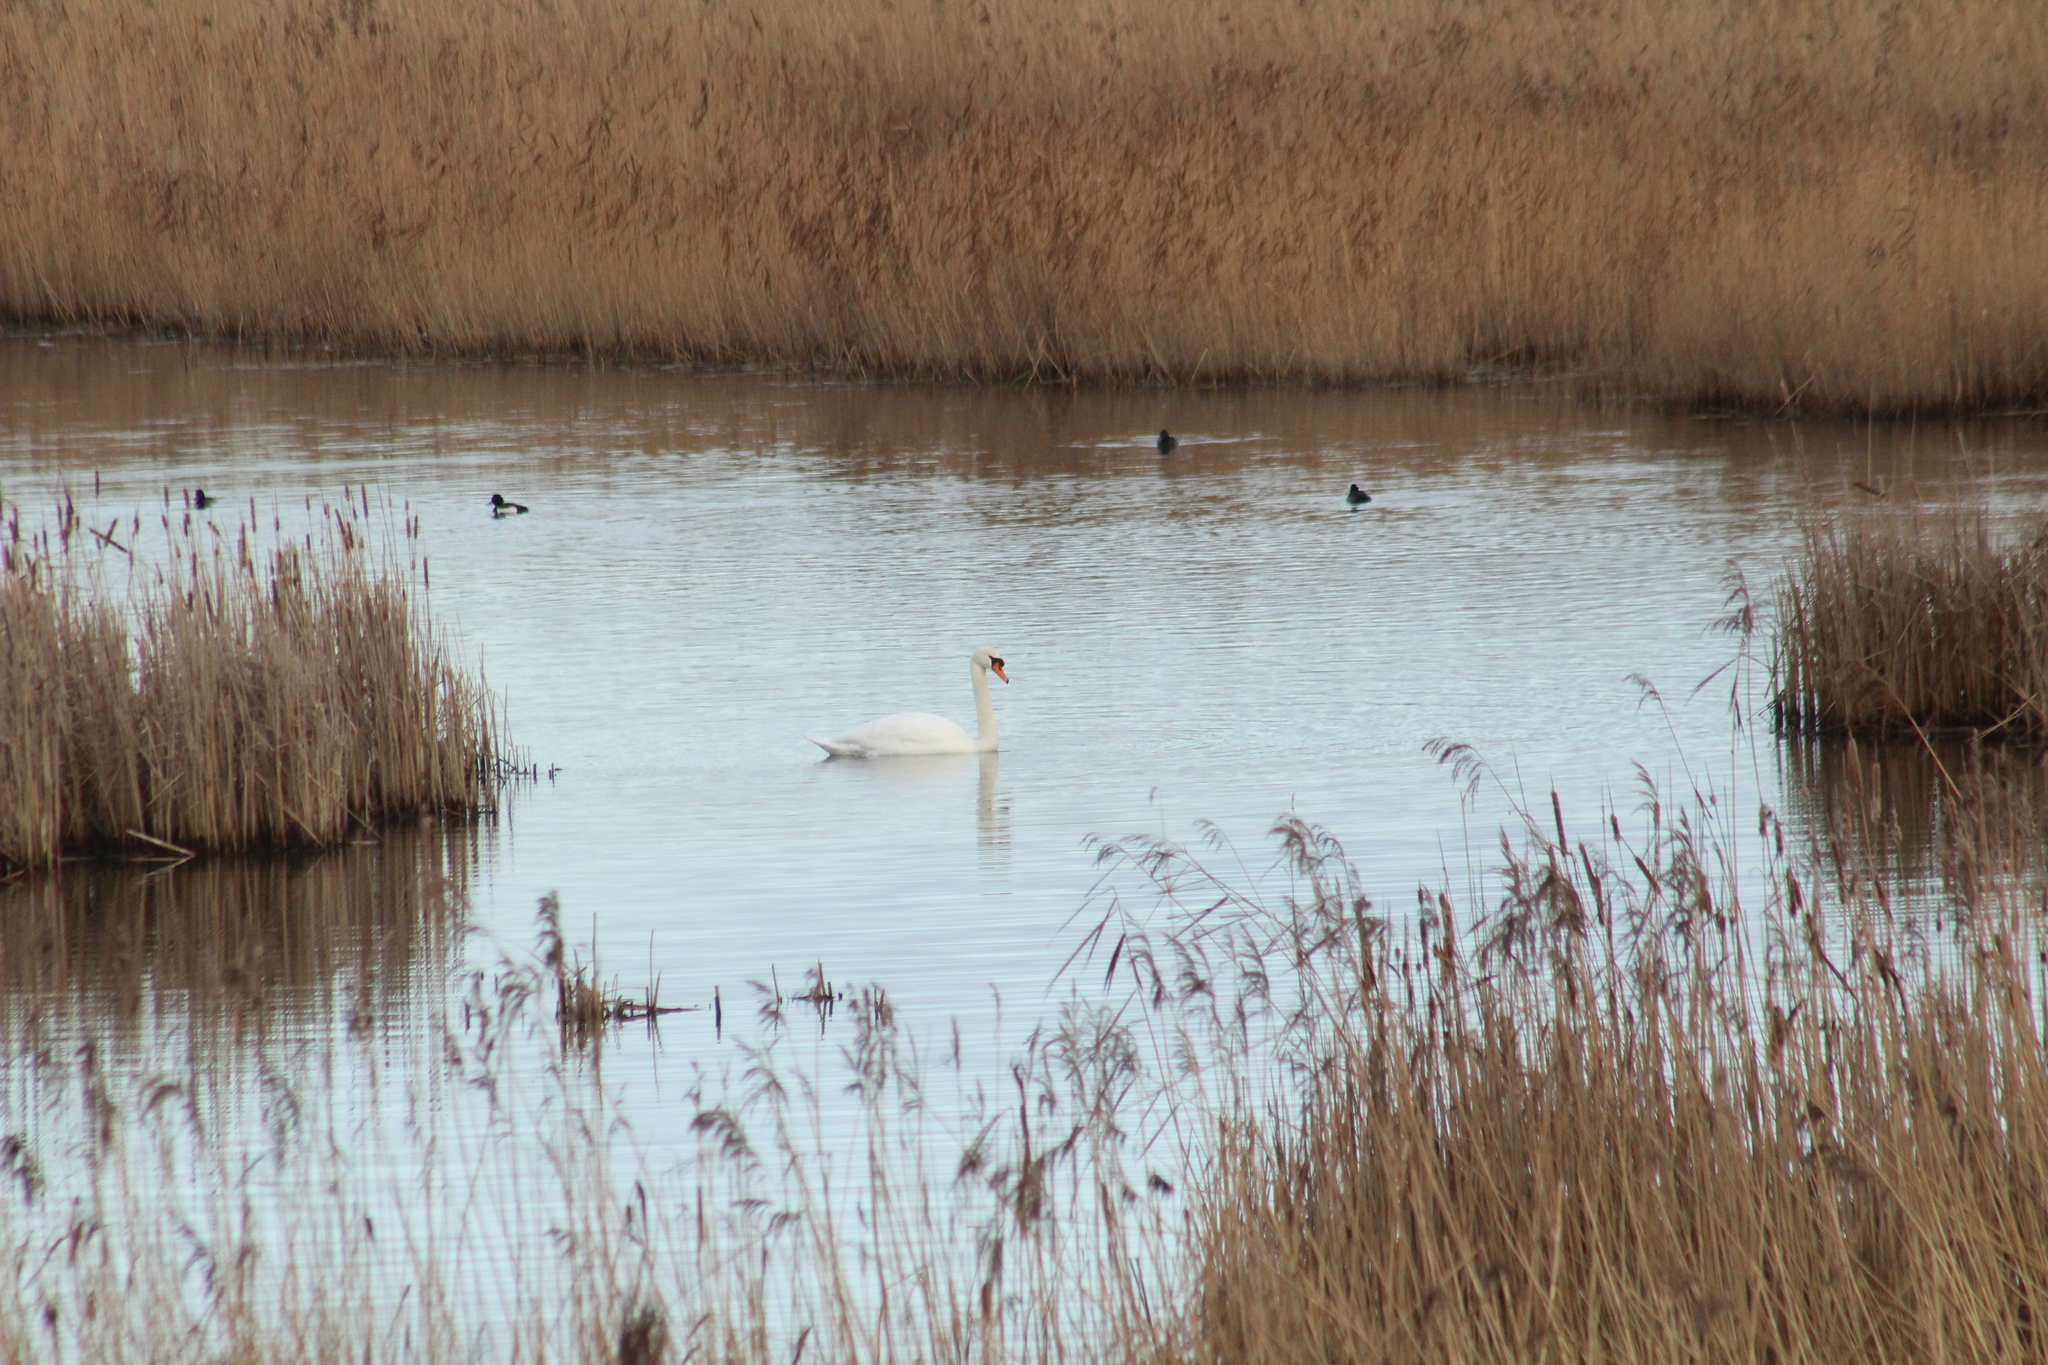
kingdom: Animalia
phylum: Chordata
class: Aves
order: Anseriformes
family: Anatidae
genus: Cygnus
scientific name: Cygnus olor
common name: Mute swan
